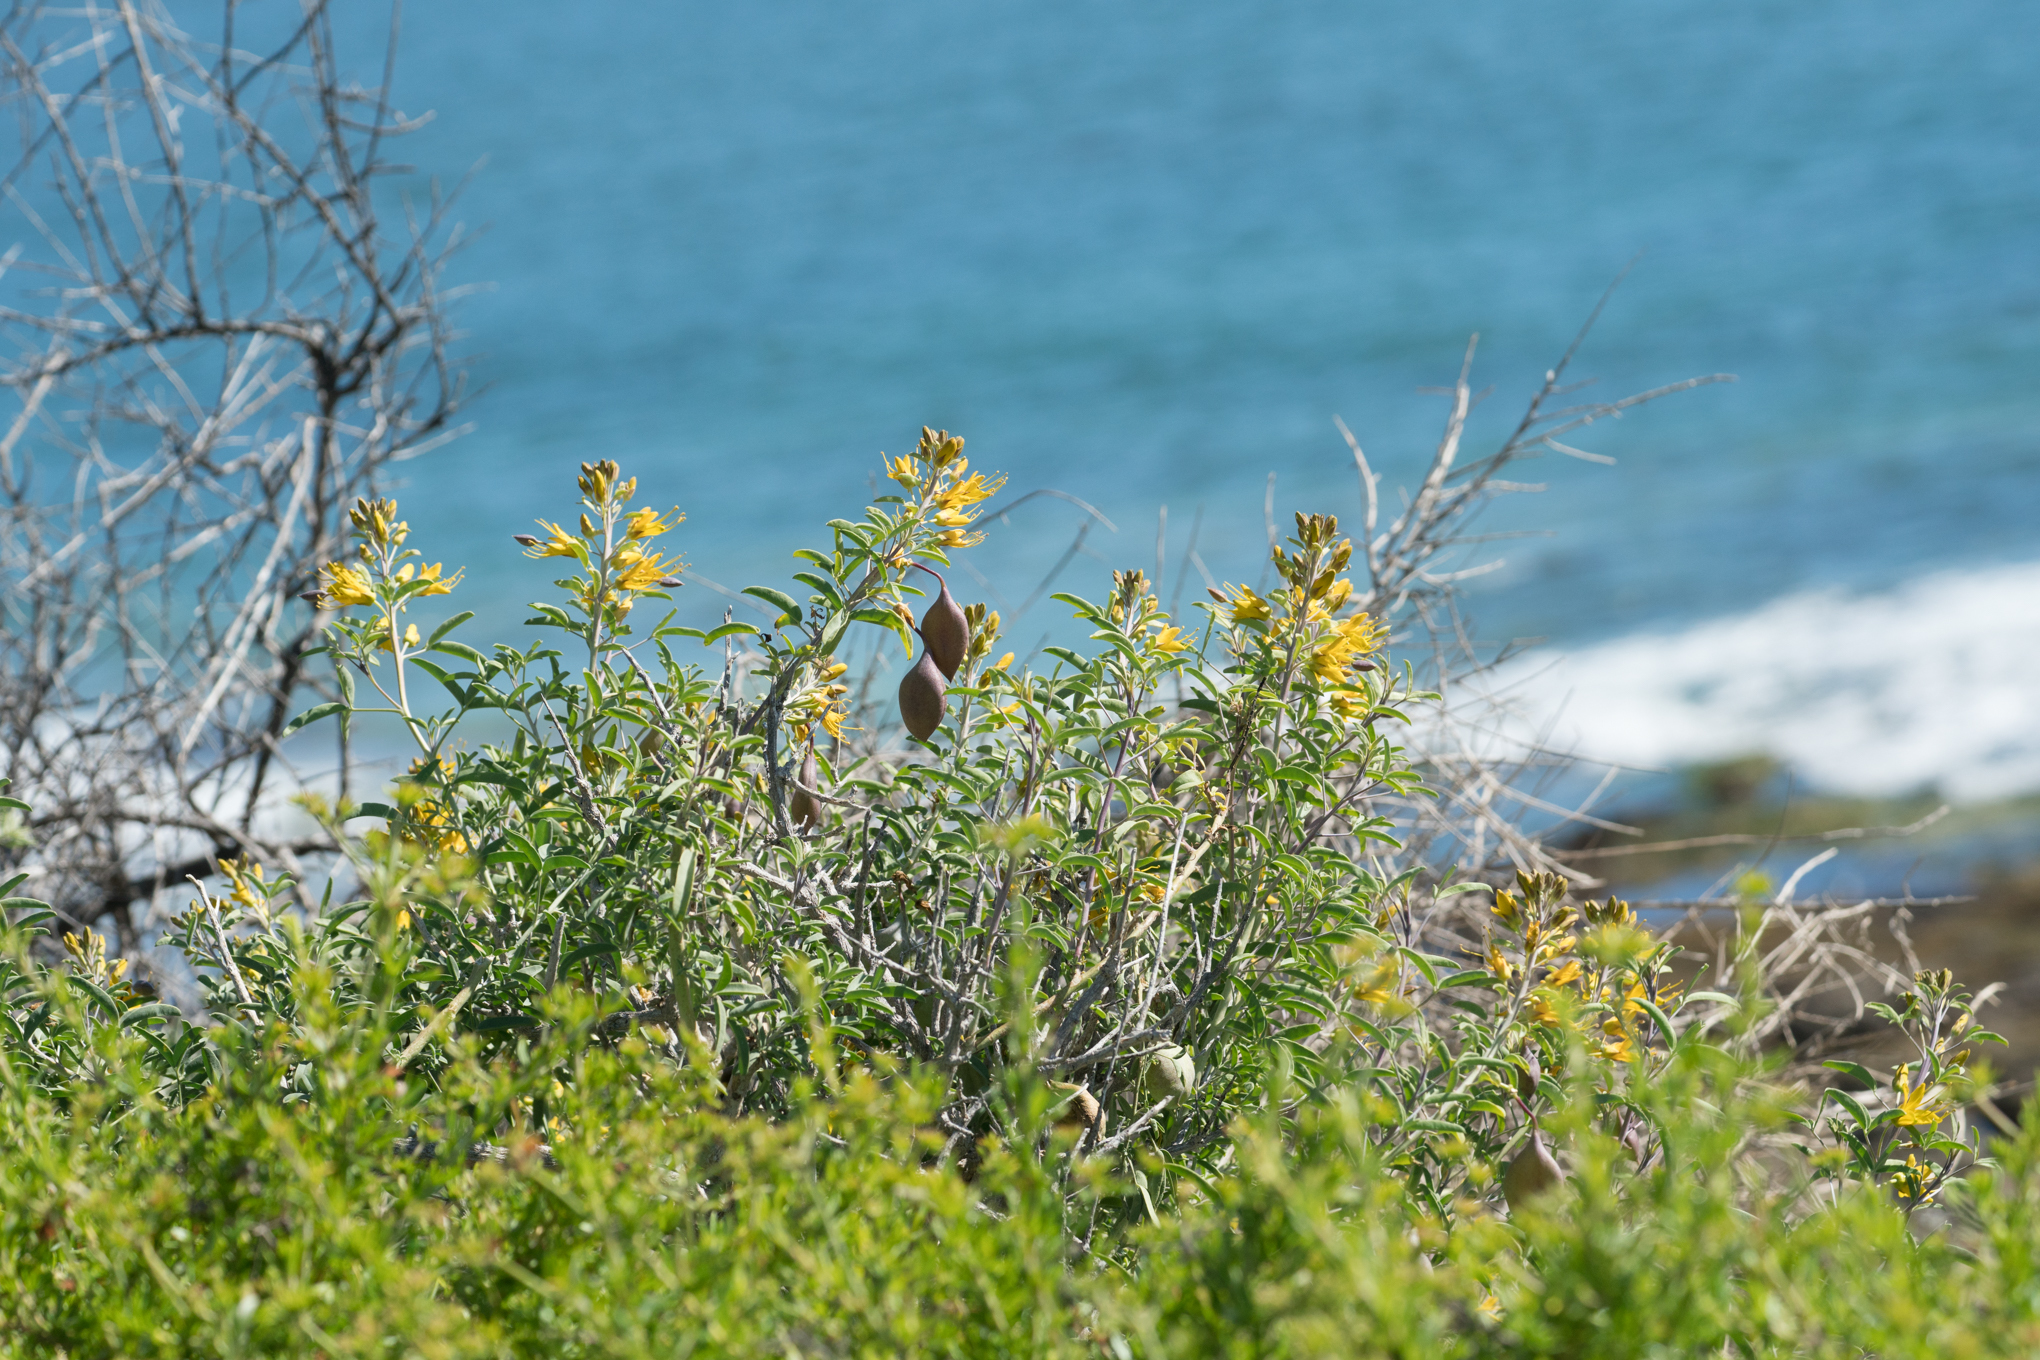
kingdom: Plantae
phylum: Tracheophyta
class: Magnoliopsida
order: Brassicales
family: Cleomaceae
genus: Cleomella
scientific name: Cleomella arborea
